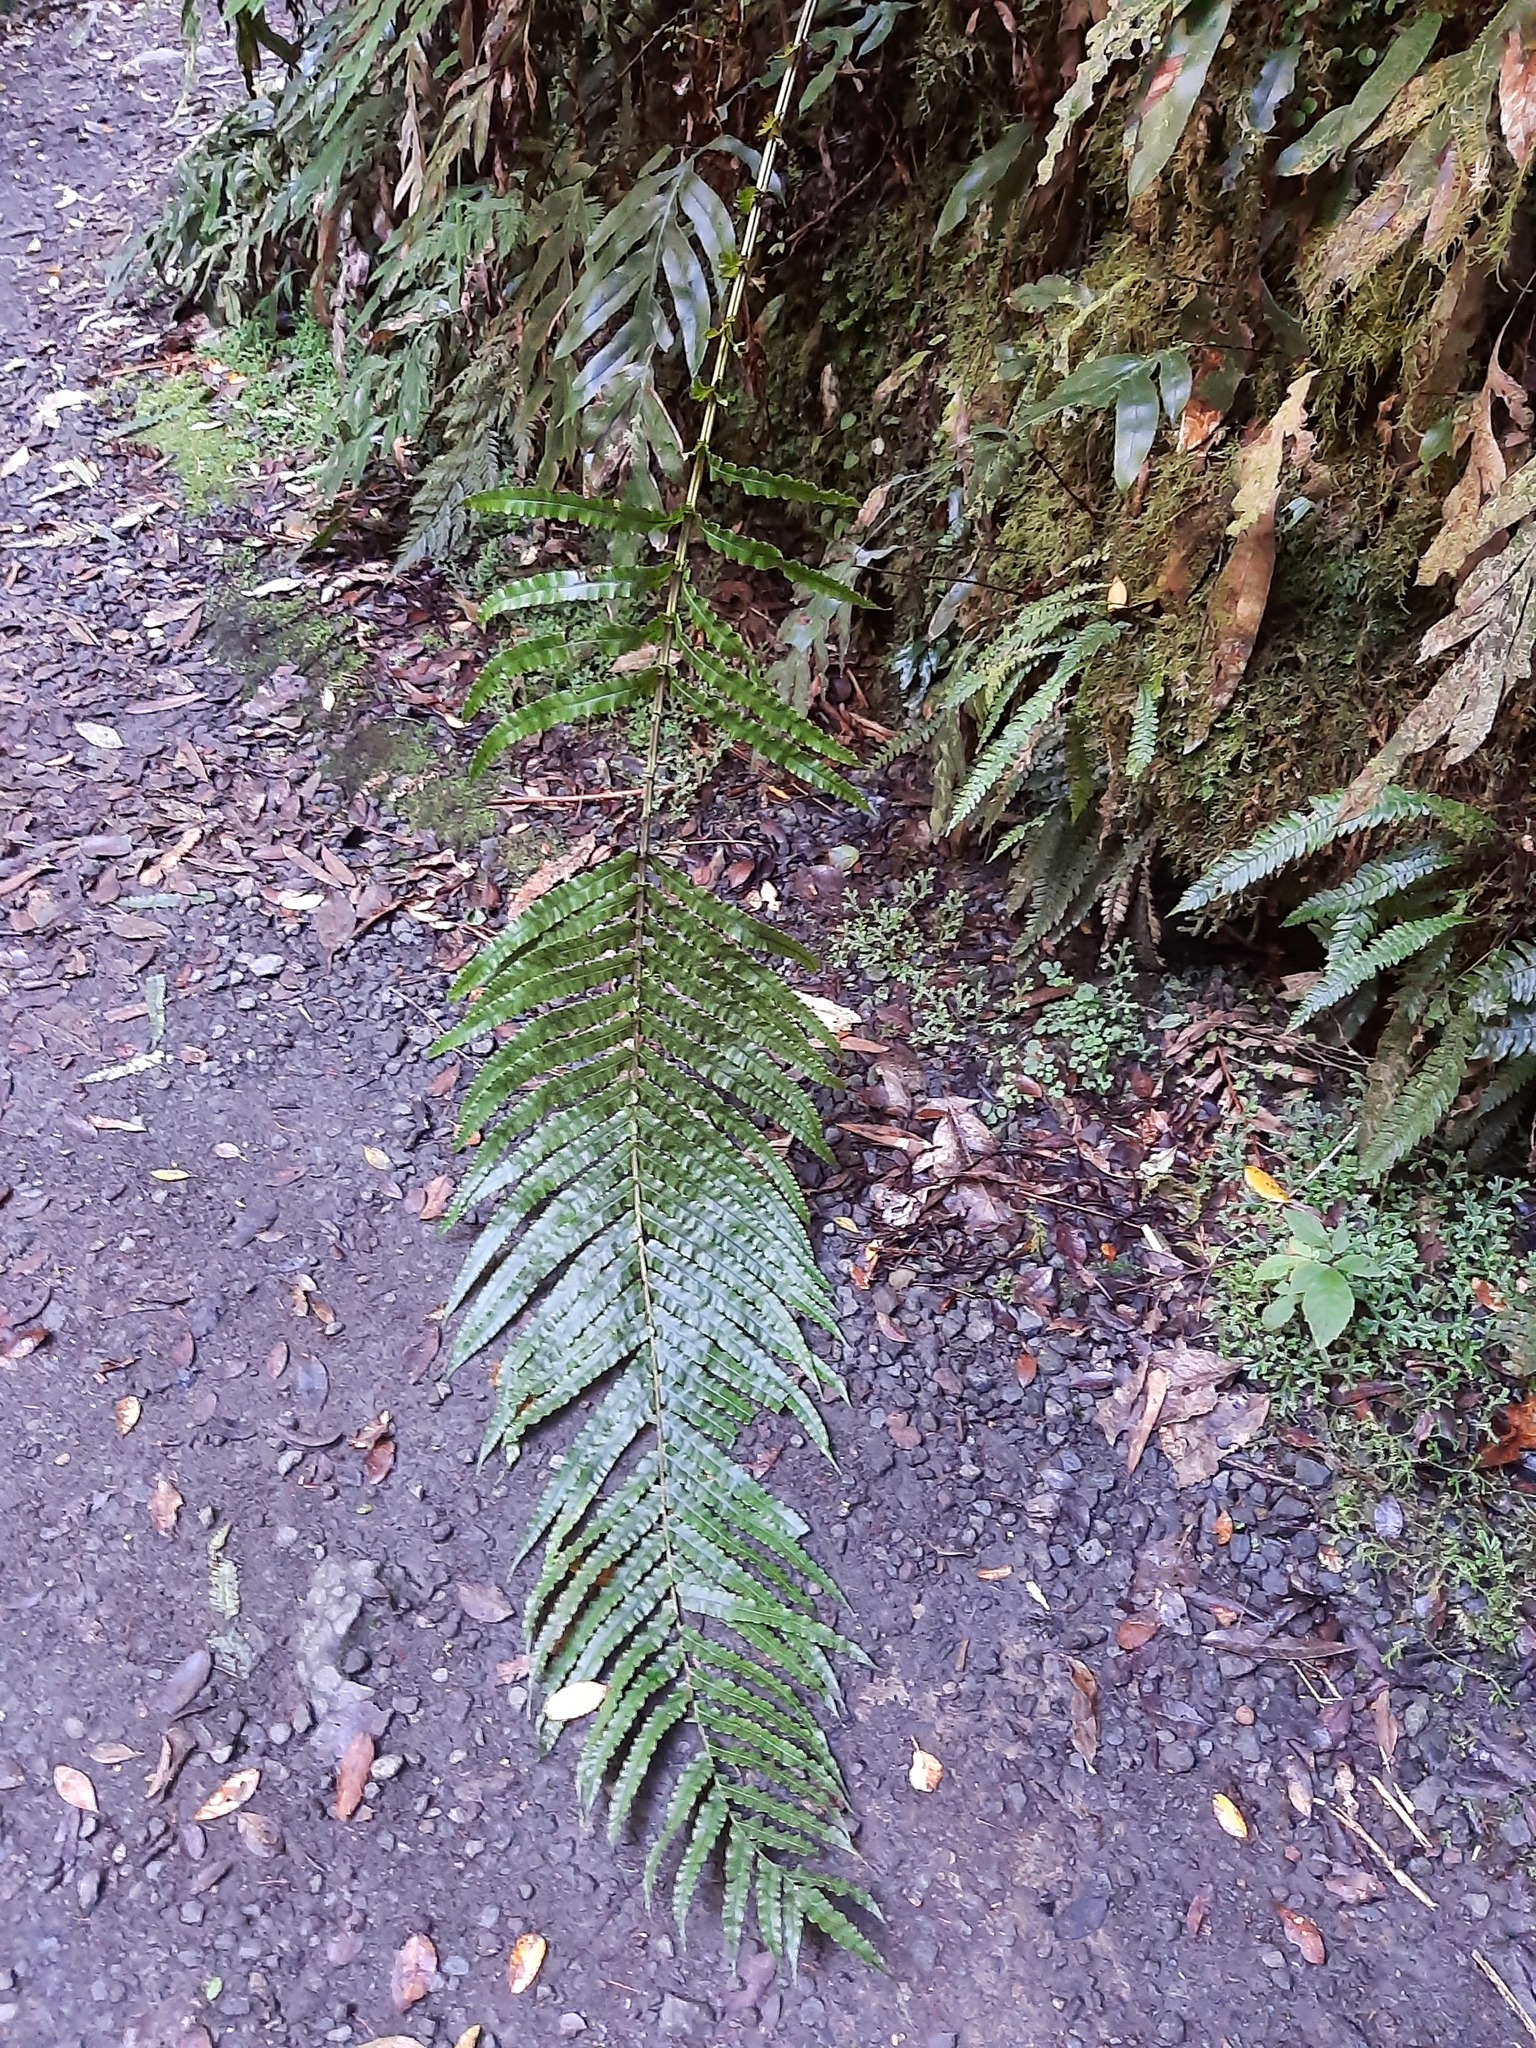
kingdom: Plantae
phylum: Tracheophyta
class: Polypodiopsida
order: Polypodiales
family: Blechnaceae
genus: Parablechnum
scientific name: Parablechnum novae-zelandiae
